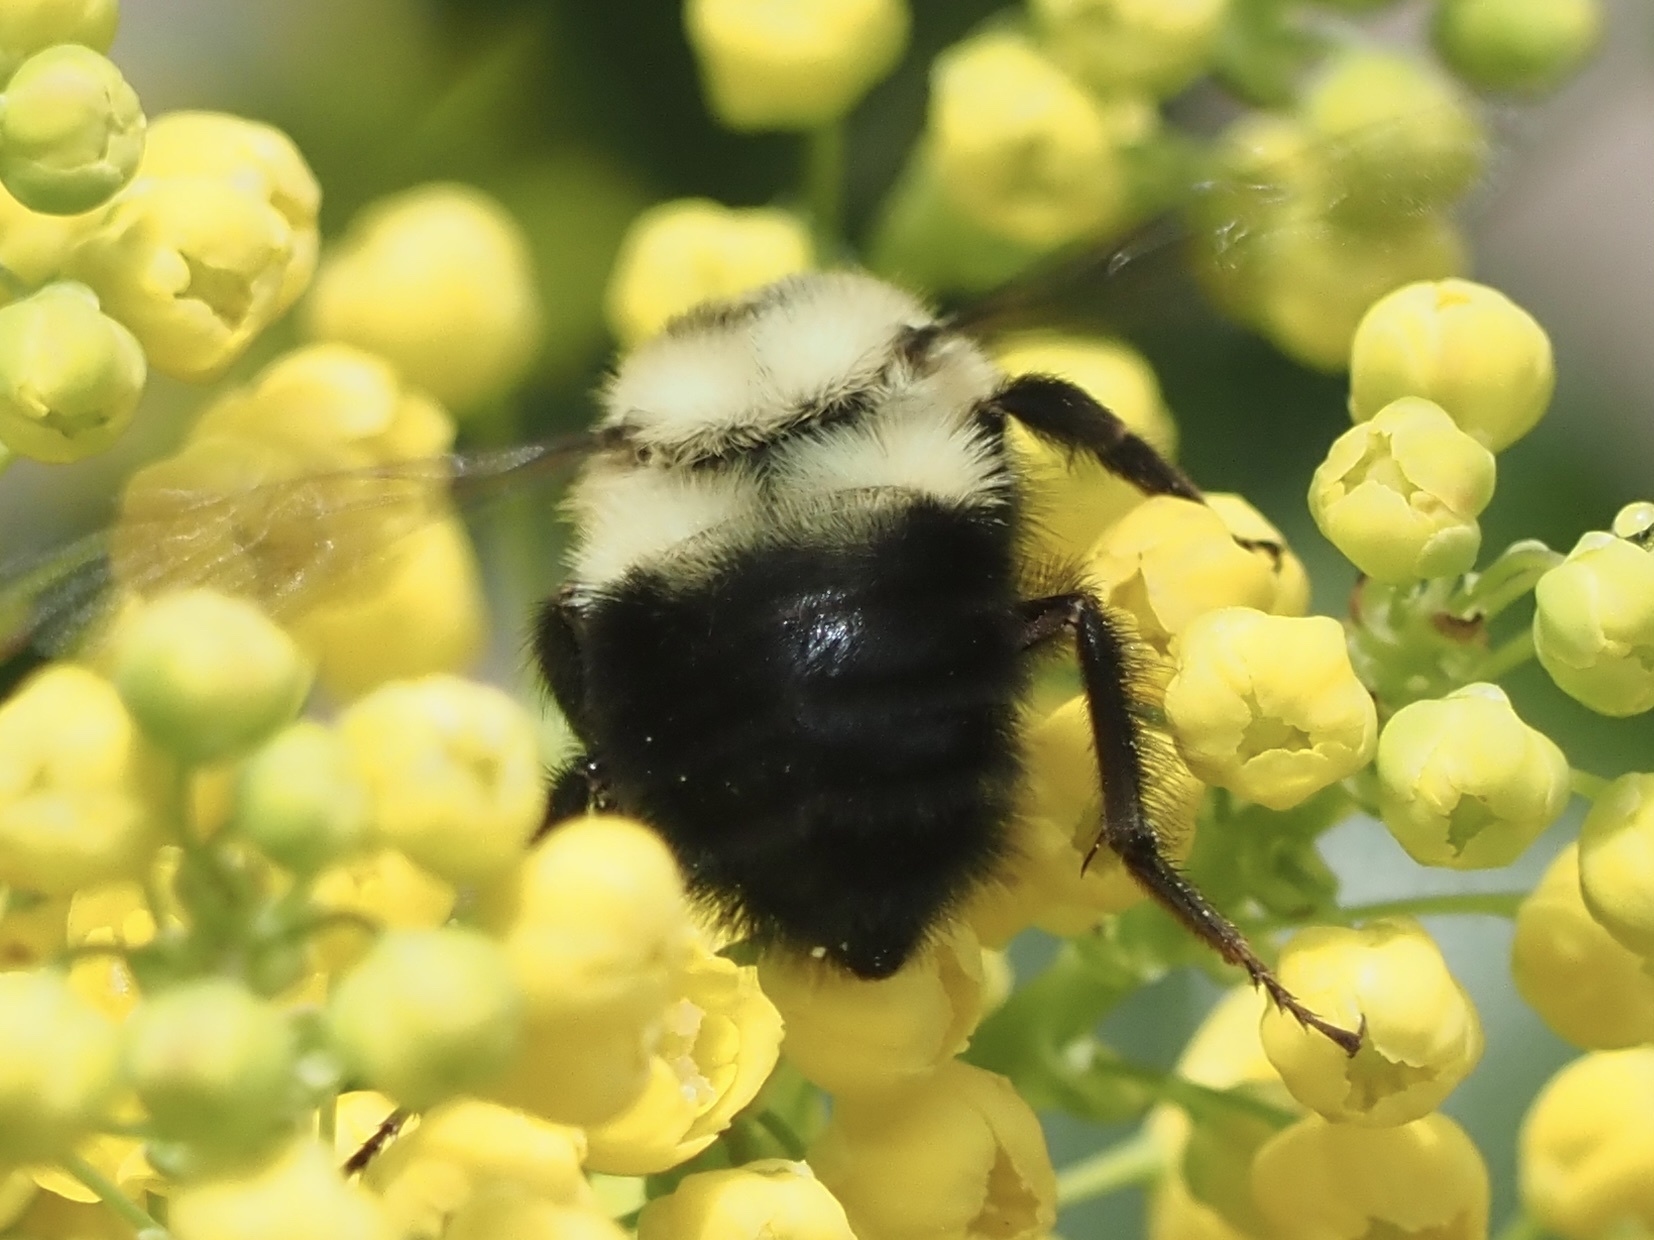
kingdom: Animalia
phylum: Arthropoda
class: Insecta
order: Hymenoptera
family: Apidae
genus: Bombus
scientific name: Bombus bimaculatus
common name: Two-spotted bumble bee
